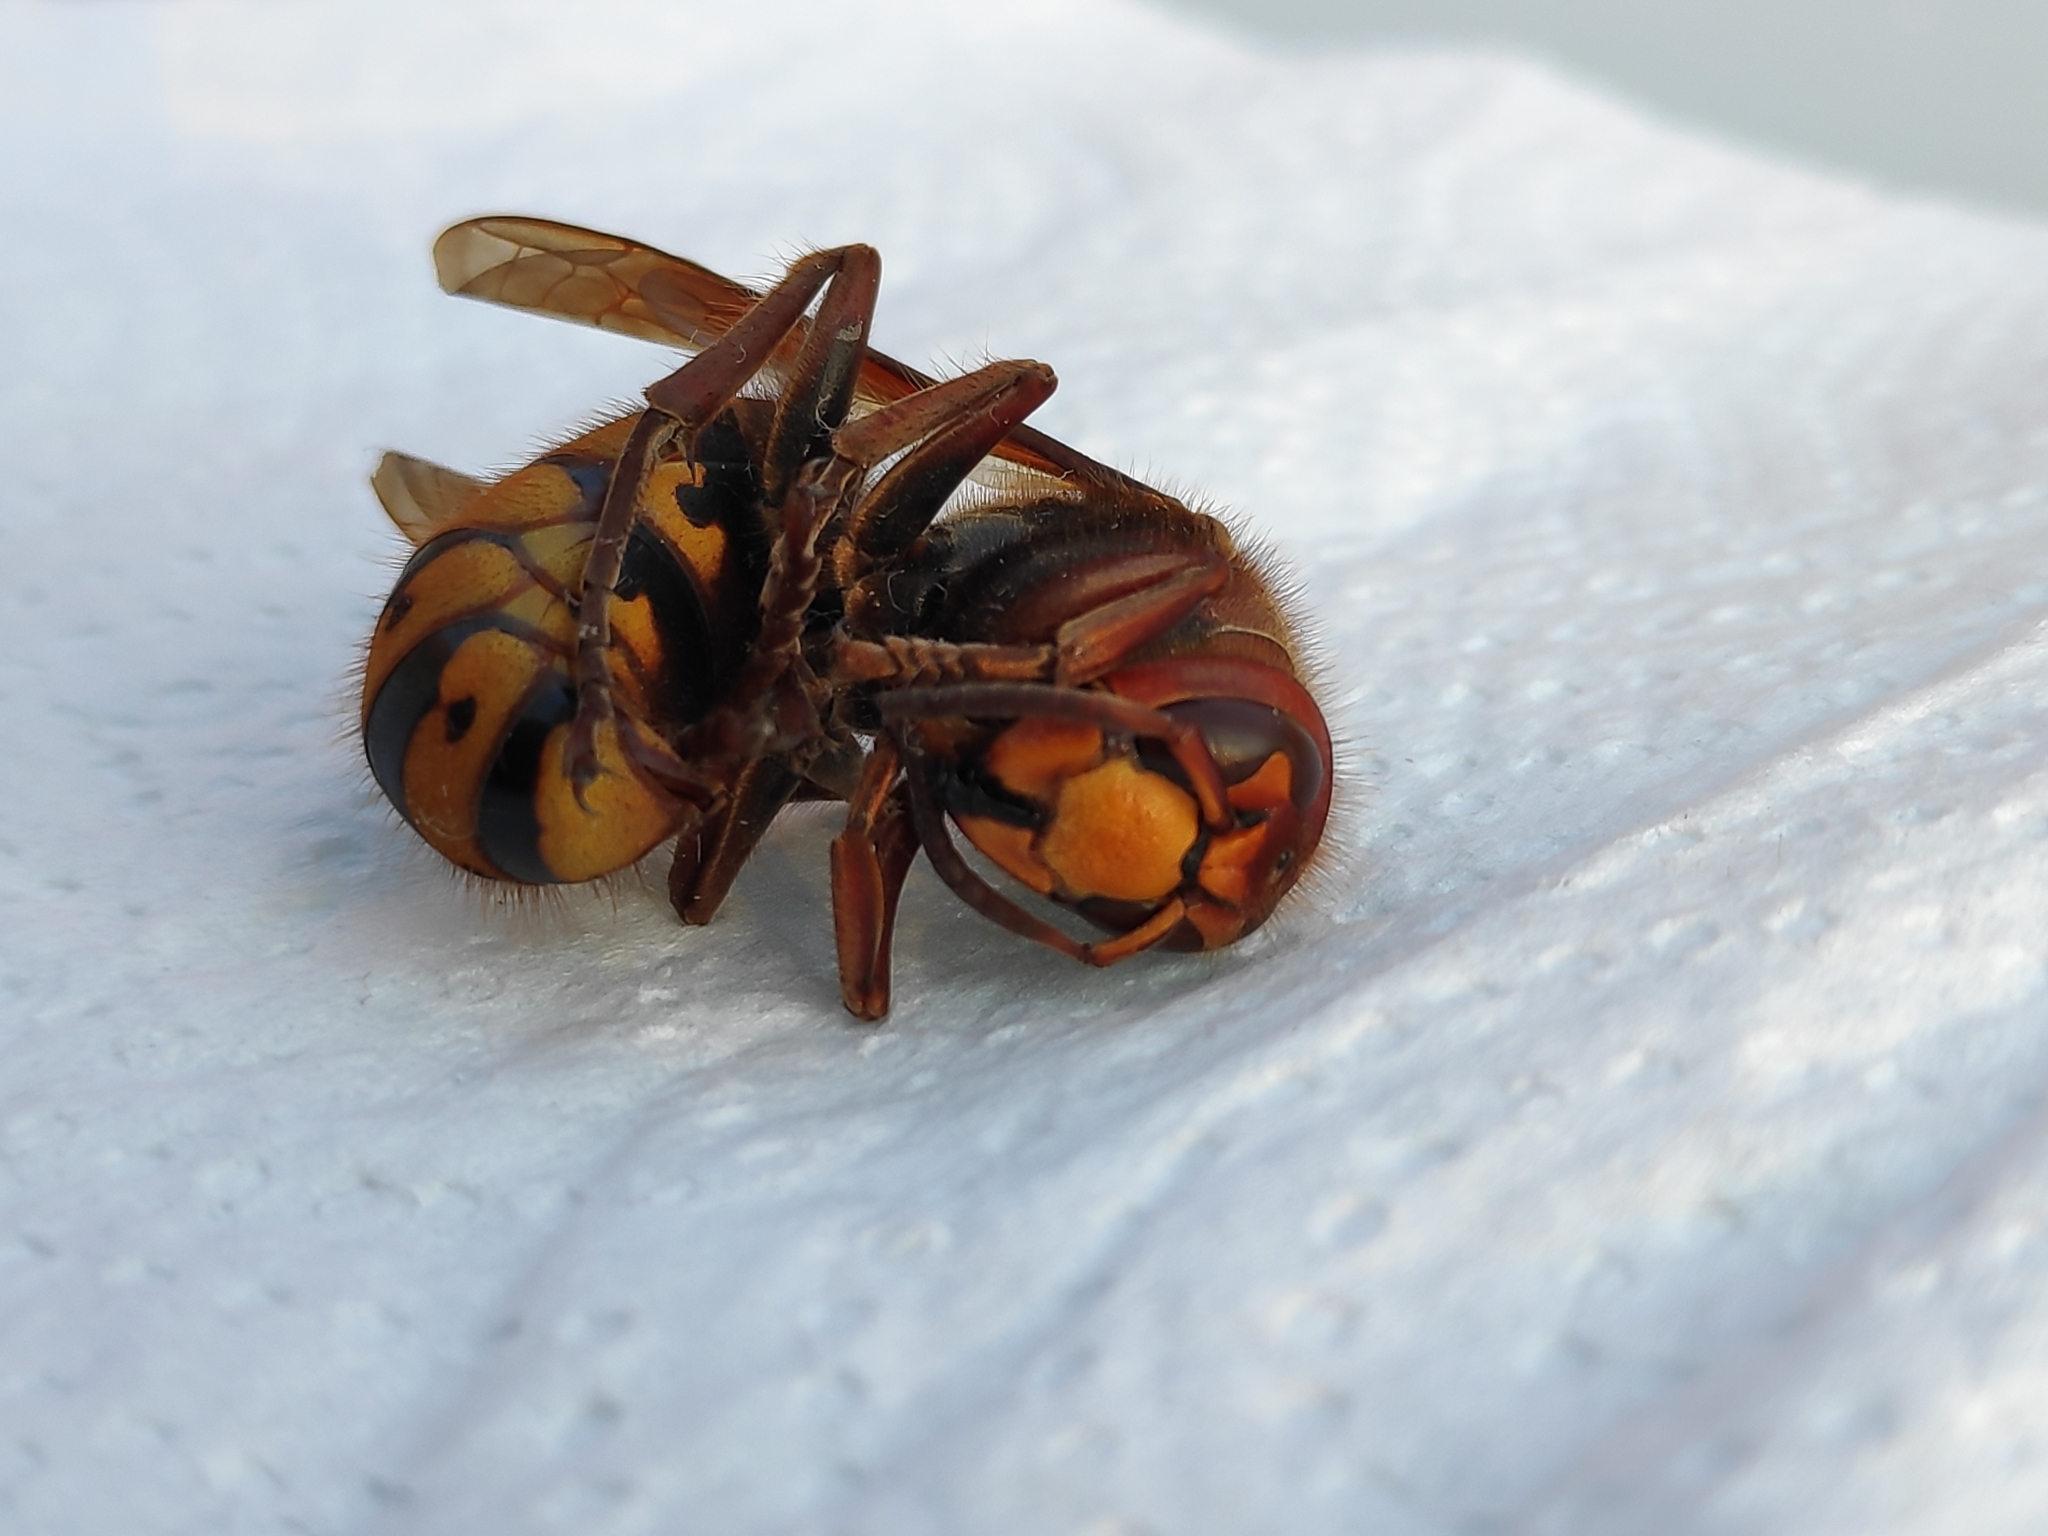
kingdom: Animalia
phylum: Arthropoda
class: Insecta
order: Hymenoptera
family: Vespidae
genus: Vespa
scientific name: Vespa crabro
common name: Hornet
